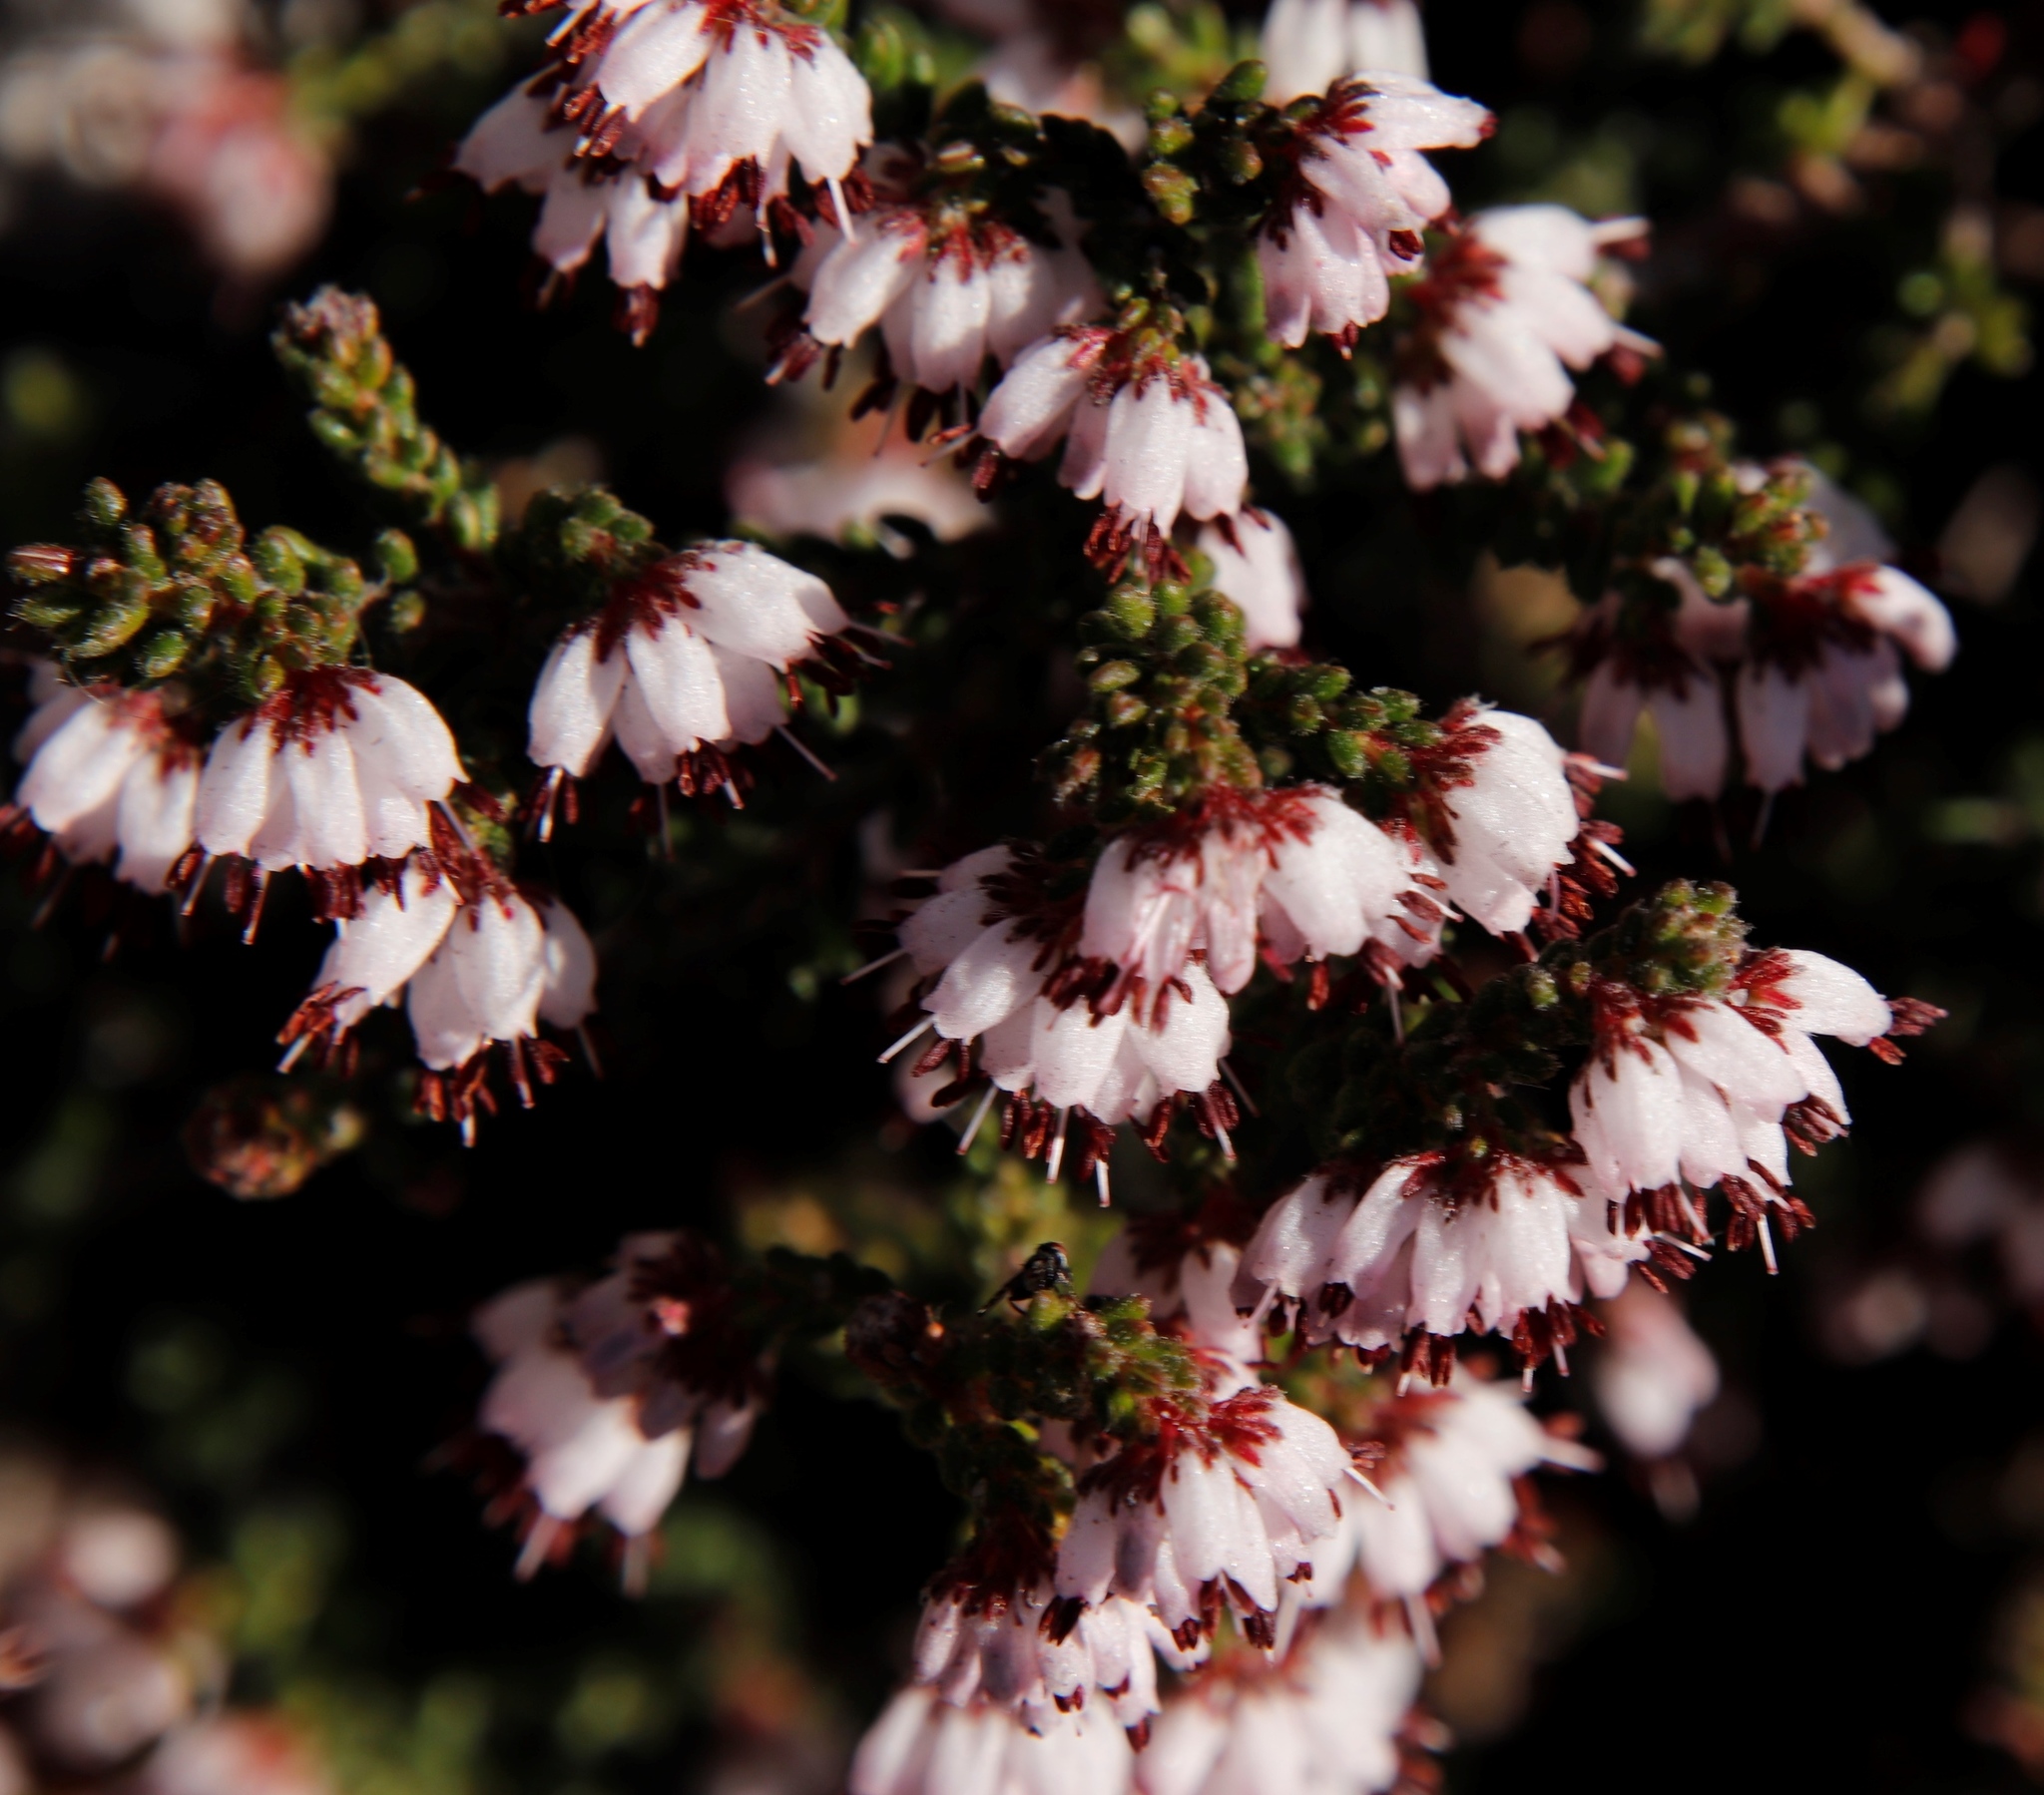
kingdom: Plantae
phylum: Tracheophyta
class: Magnoliopsida
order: Ericales
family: Ericaceae
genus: Erica
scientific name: Erica ericoides
